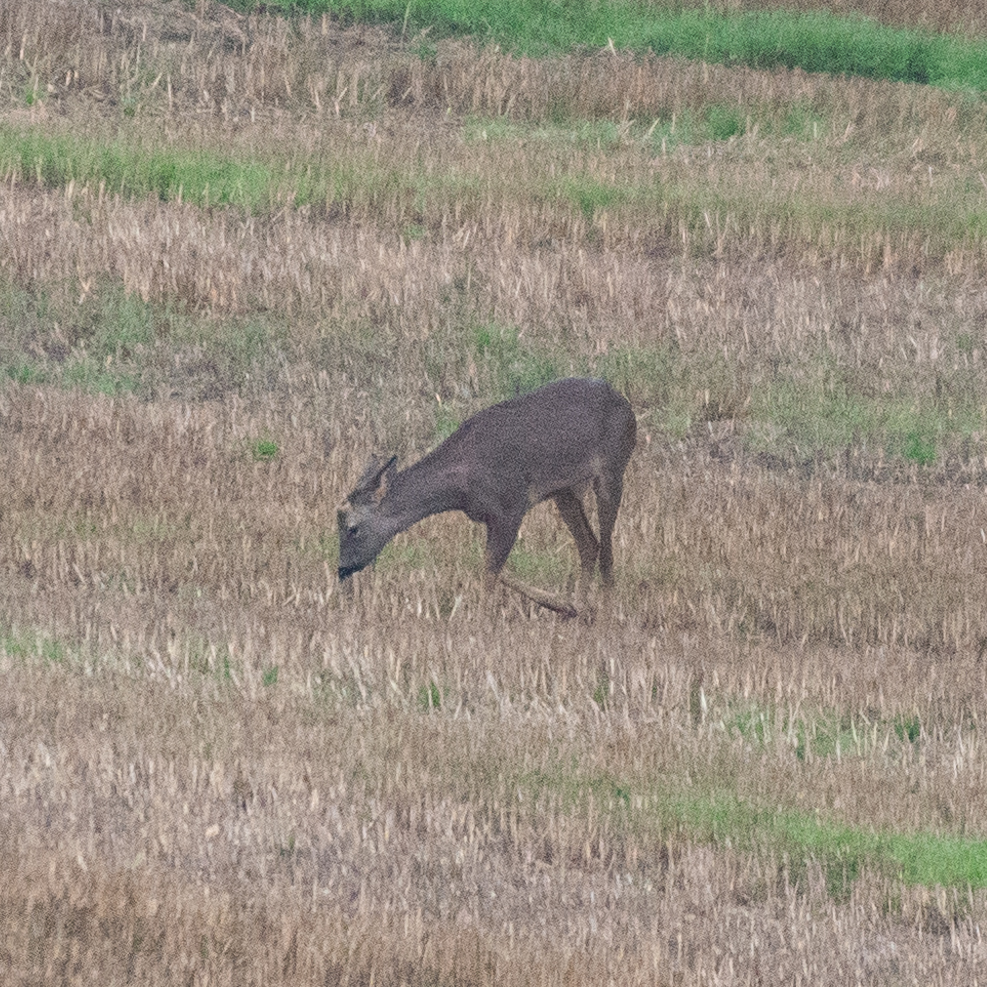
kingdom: Animalia
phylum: Chordata
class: Mammalia
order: Artiodactyla
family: Cervidae
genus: Capreolus
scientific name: Capreolus capreolus
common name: Western roe deer
